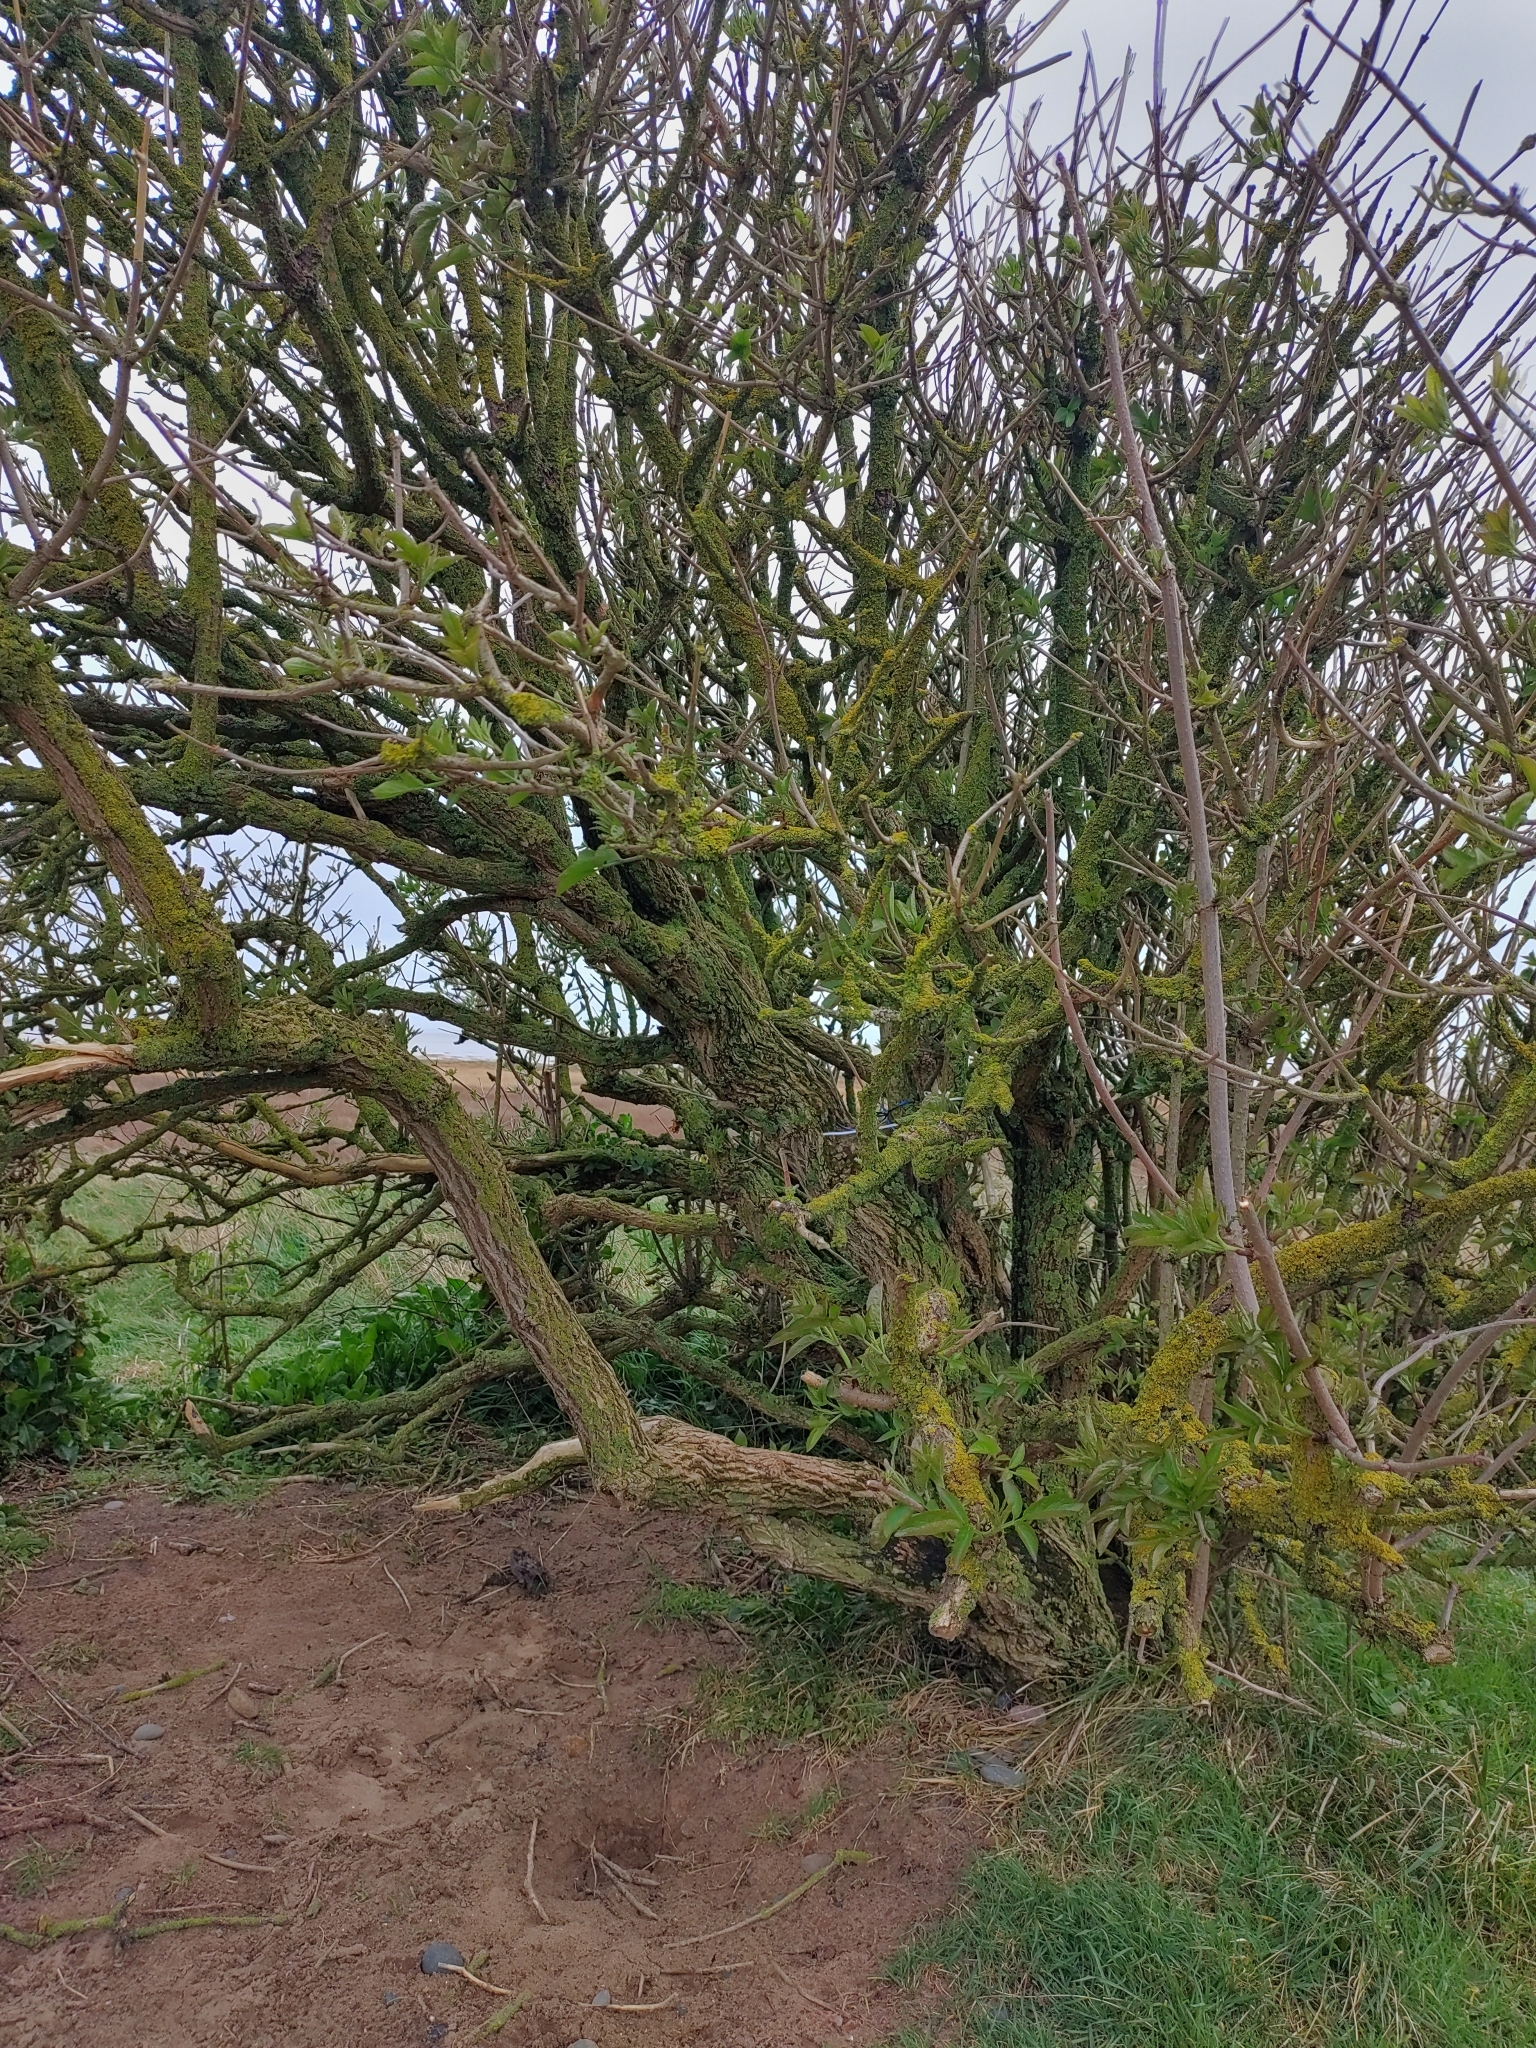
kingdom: Plantae
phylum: Tracheophyta
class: Magnoliopsida
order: Dipsacales
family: Viburnaceae
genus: Sambucus
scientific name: Sambucus nigra
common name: Elder
